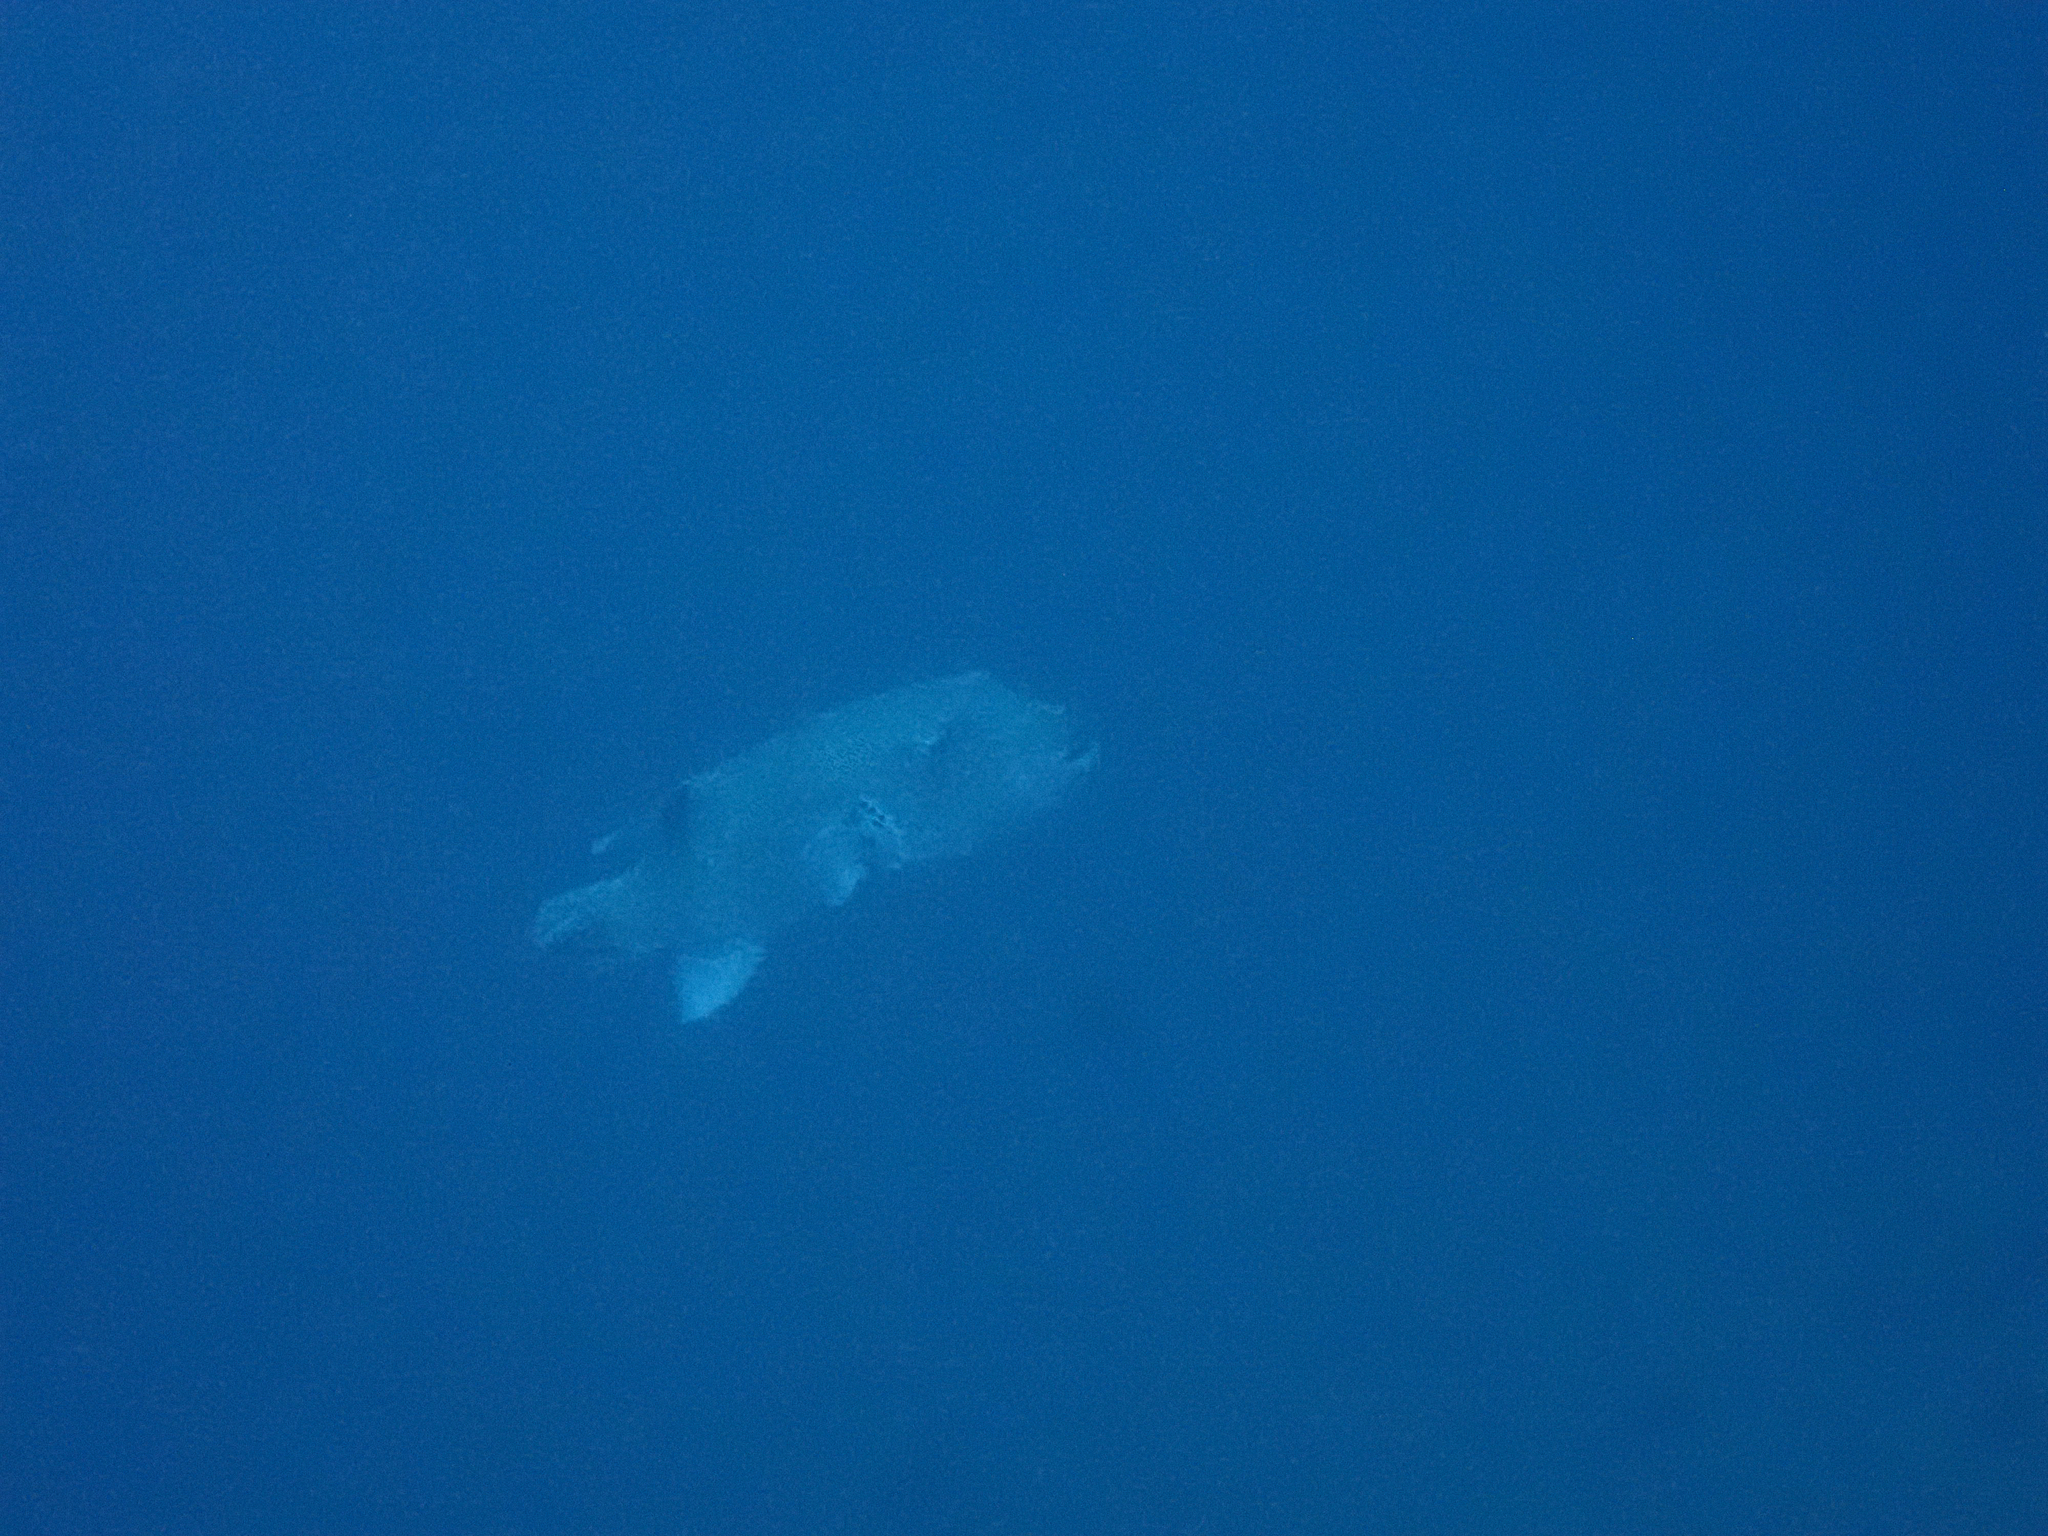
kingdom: Animalia
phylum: Chordata
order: Tetraodontiformes
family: Tetraodontidae
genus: Arothron
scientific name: Arothron stellatus
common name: Star blaasop
